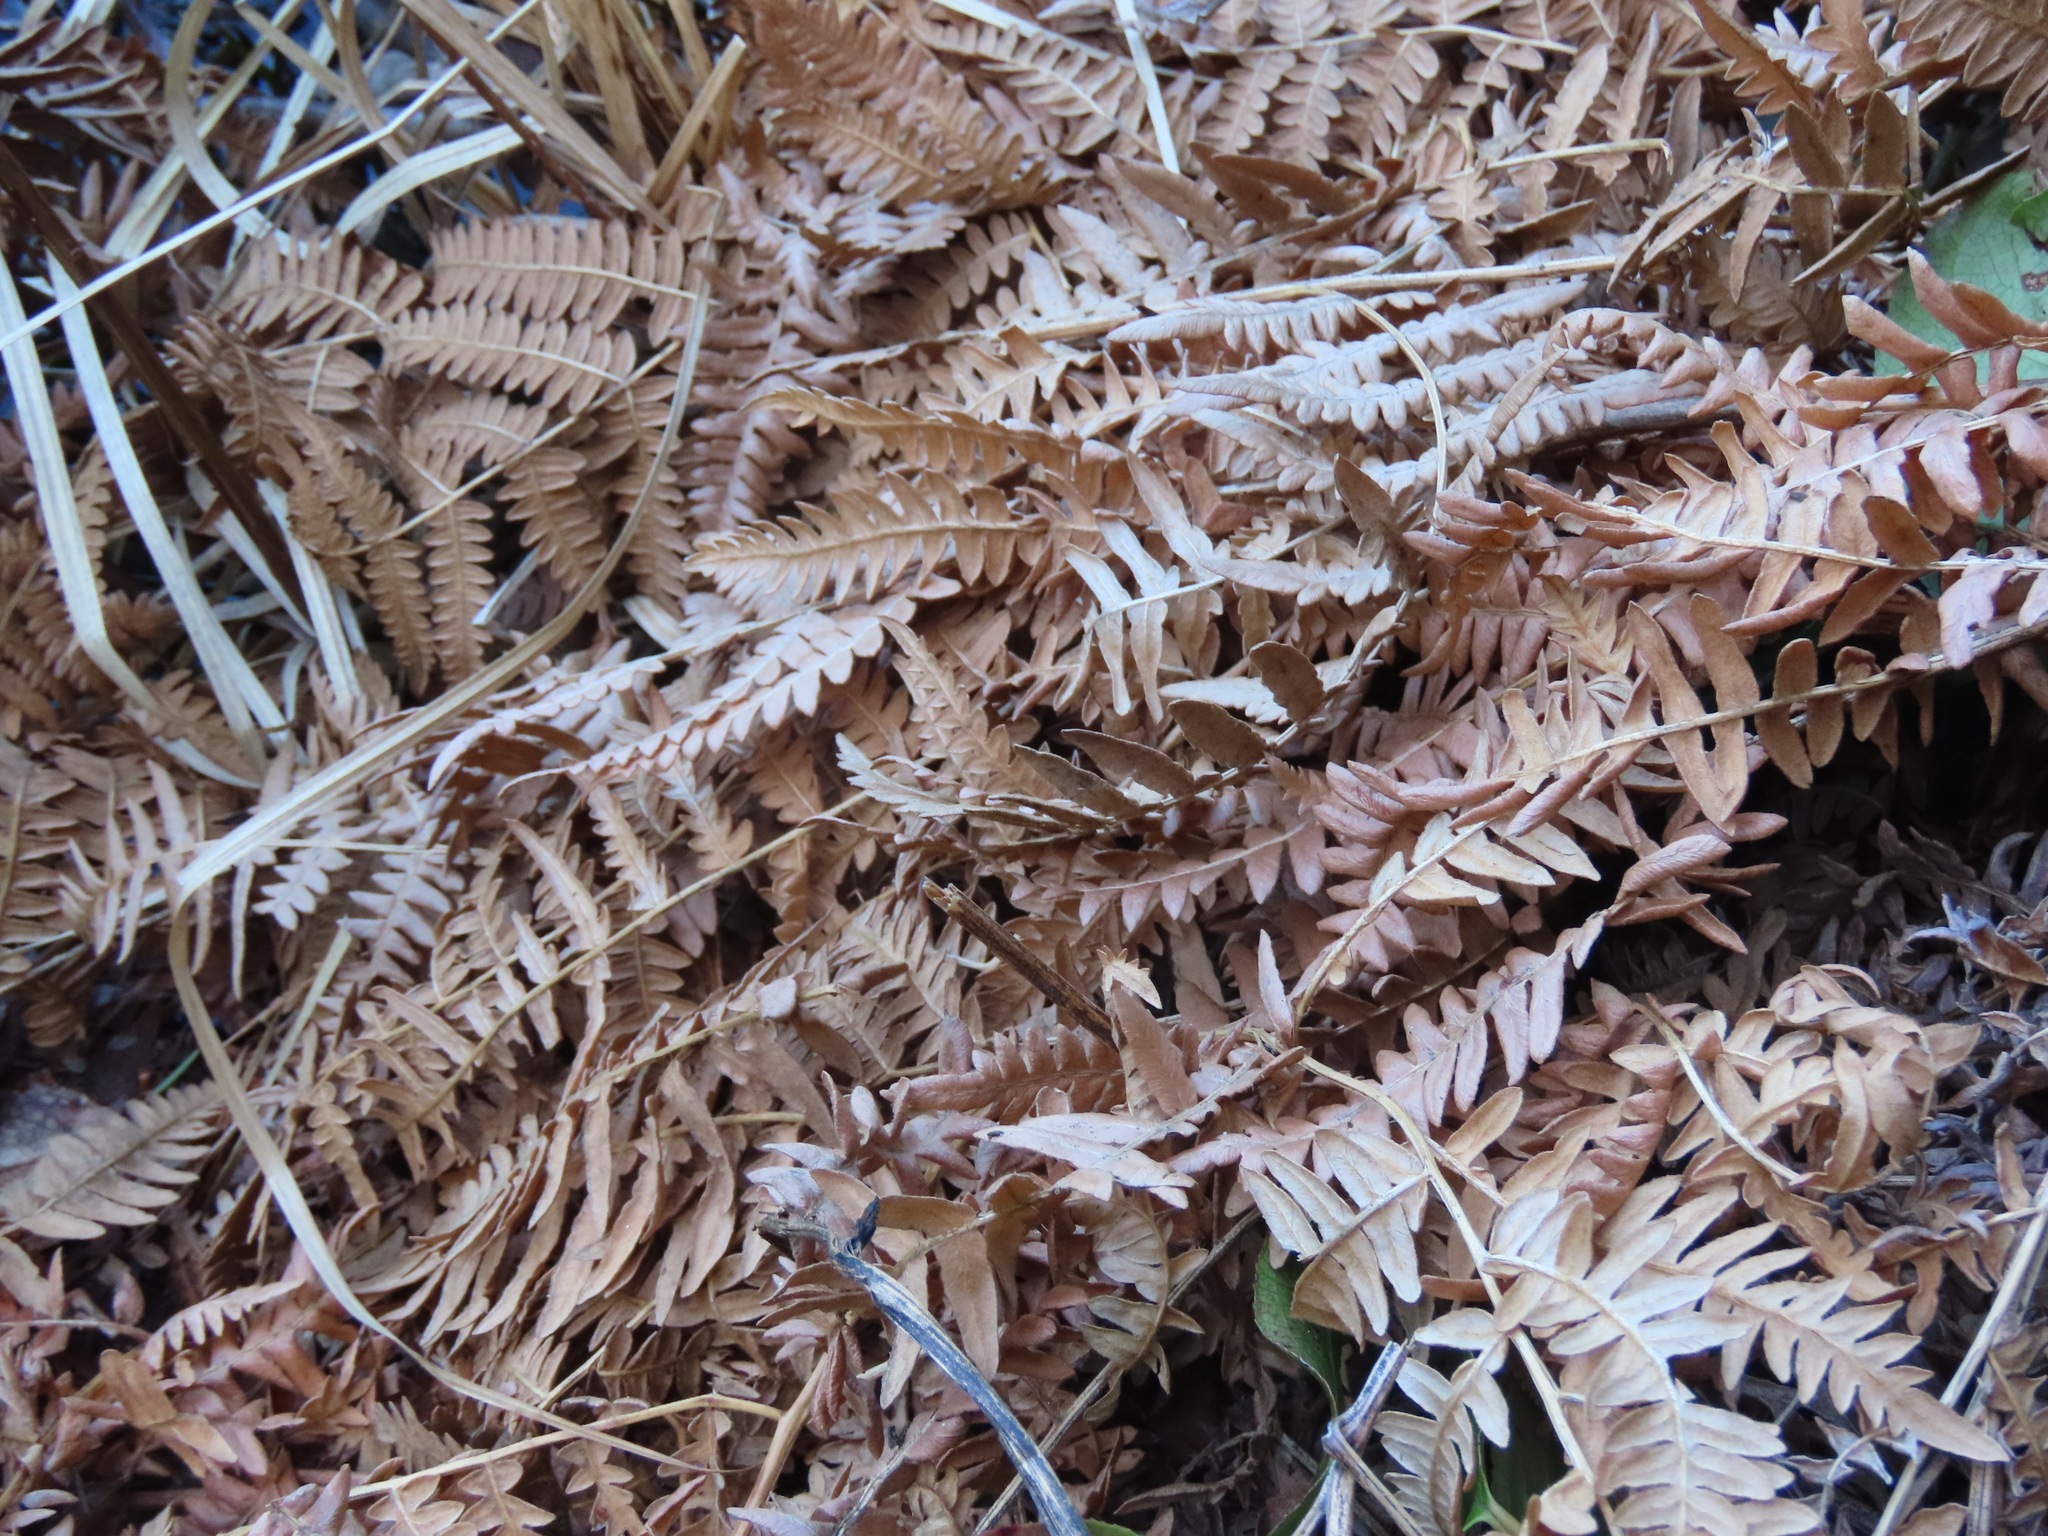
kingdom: Plantae
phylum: Tracheophyta
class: Polypodiopsida
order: Polypodiales
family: Dennstaedtiaceae
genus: Pteridium
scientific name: Pteridium aquilinum
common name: Bracken
